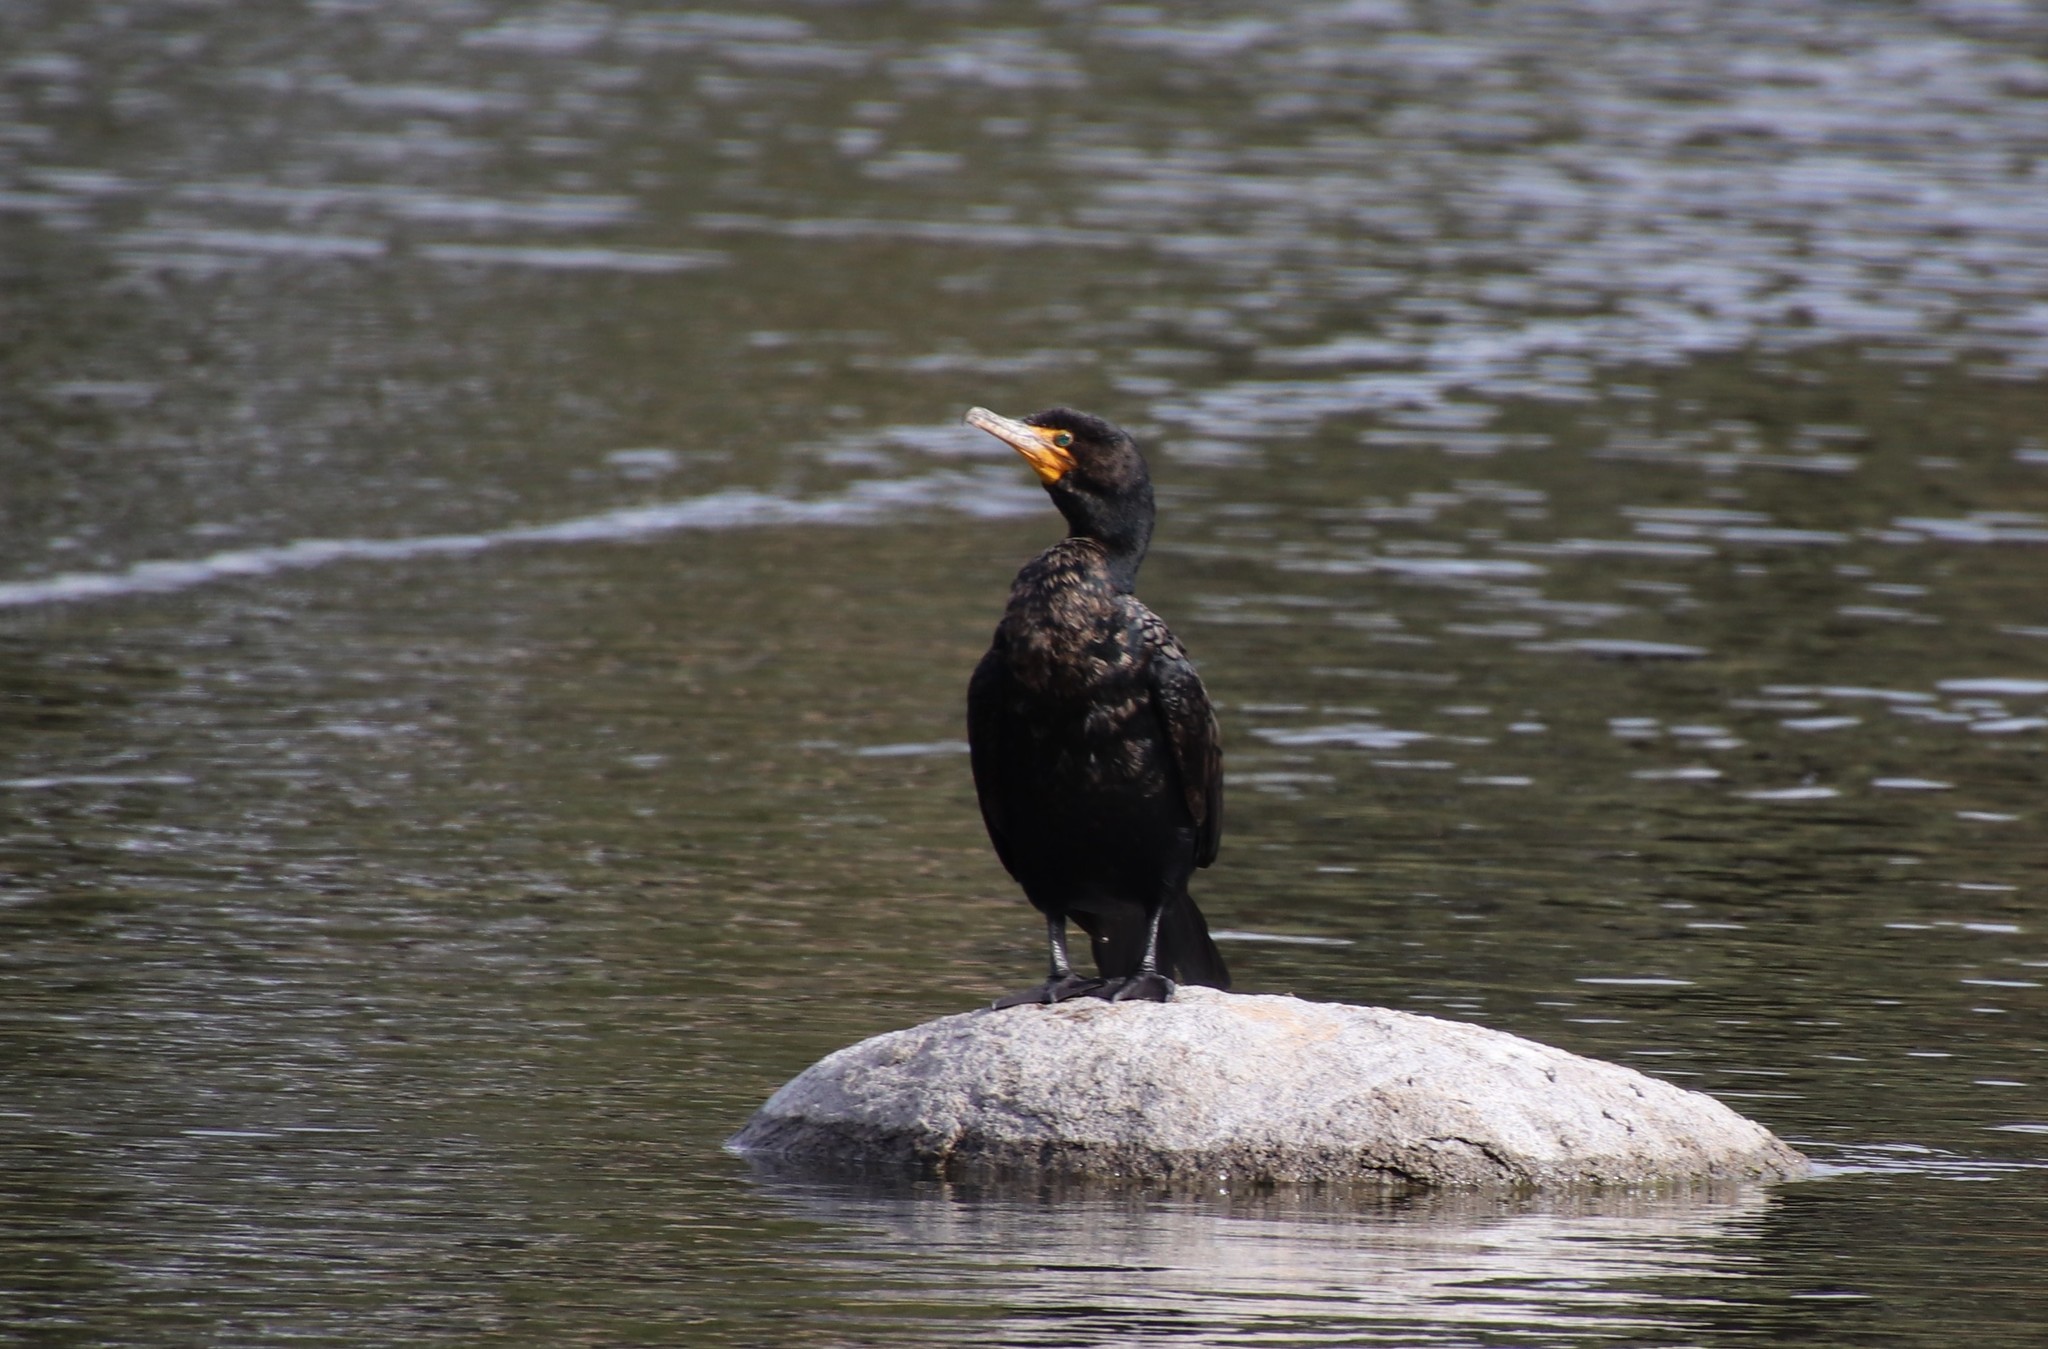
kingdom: Animalia
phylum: Chordata
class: Aves
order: Suliformes
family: Phalacrocoracidae
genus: Phalacrocorax
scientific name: Phalacrocorax auritus
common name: Double-crested cormorant
